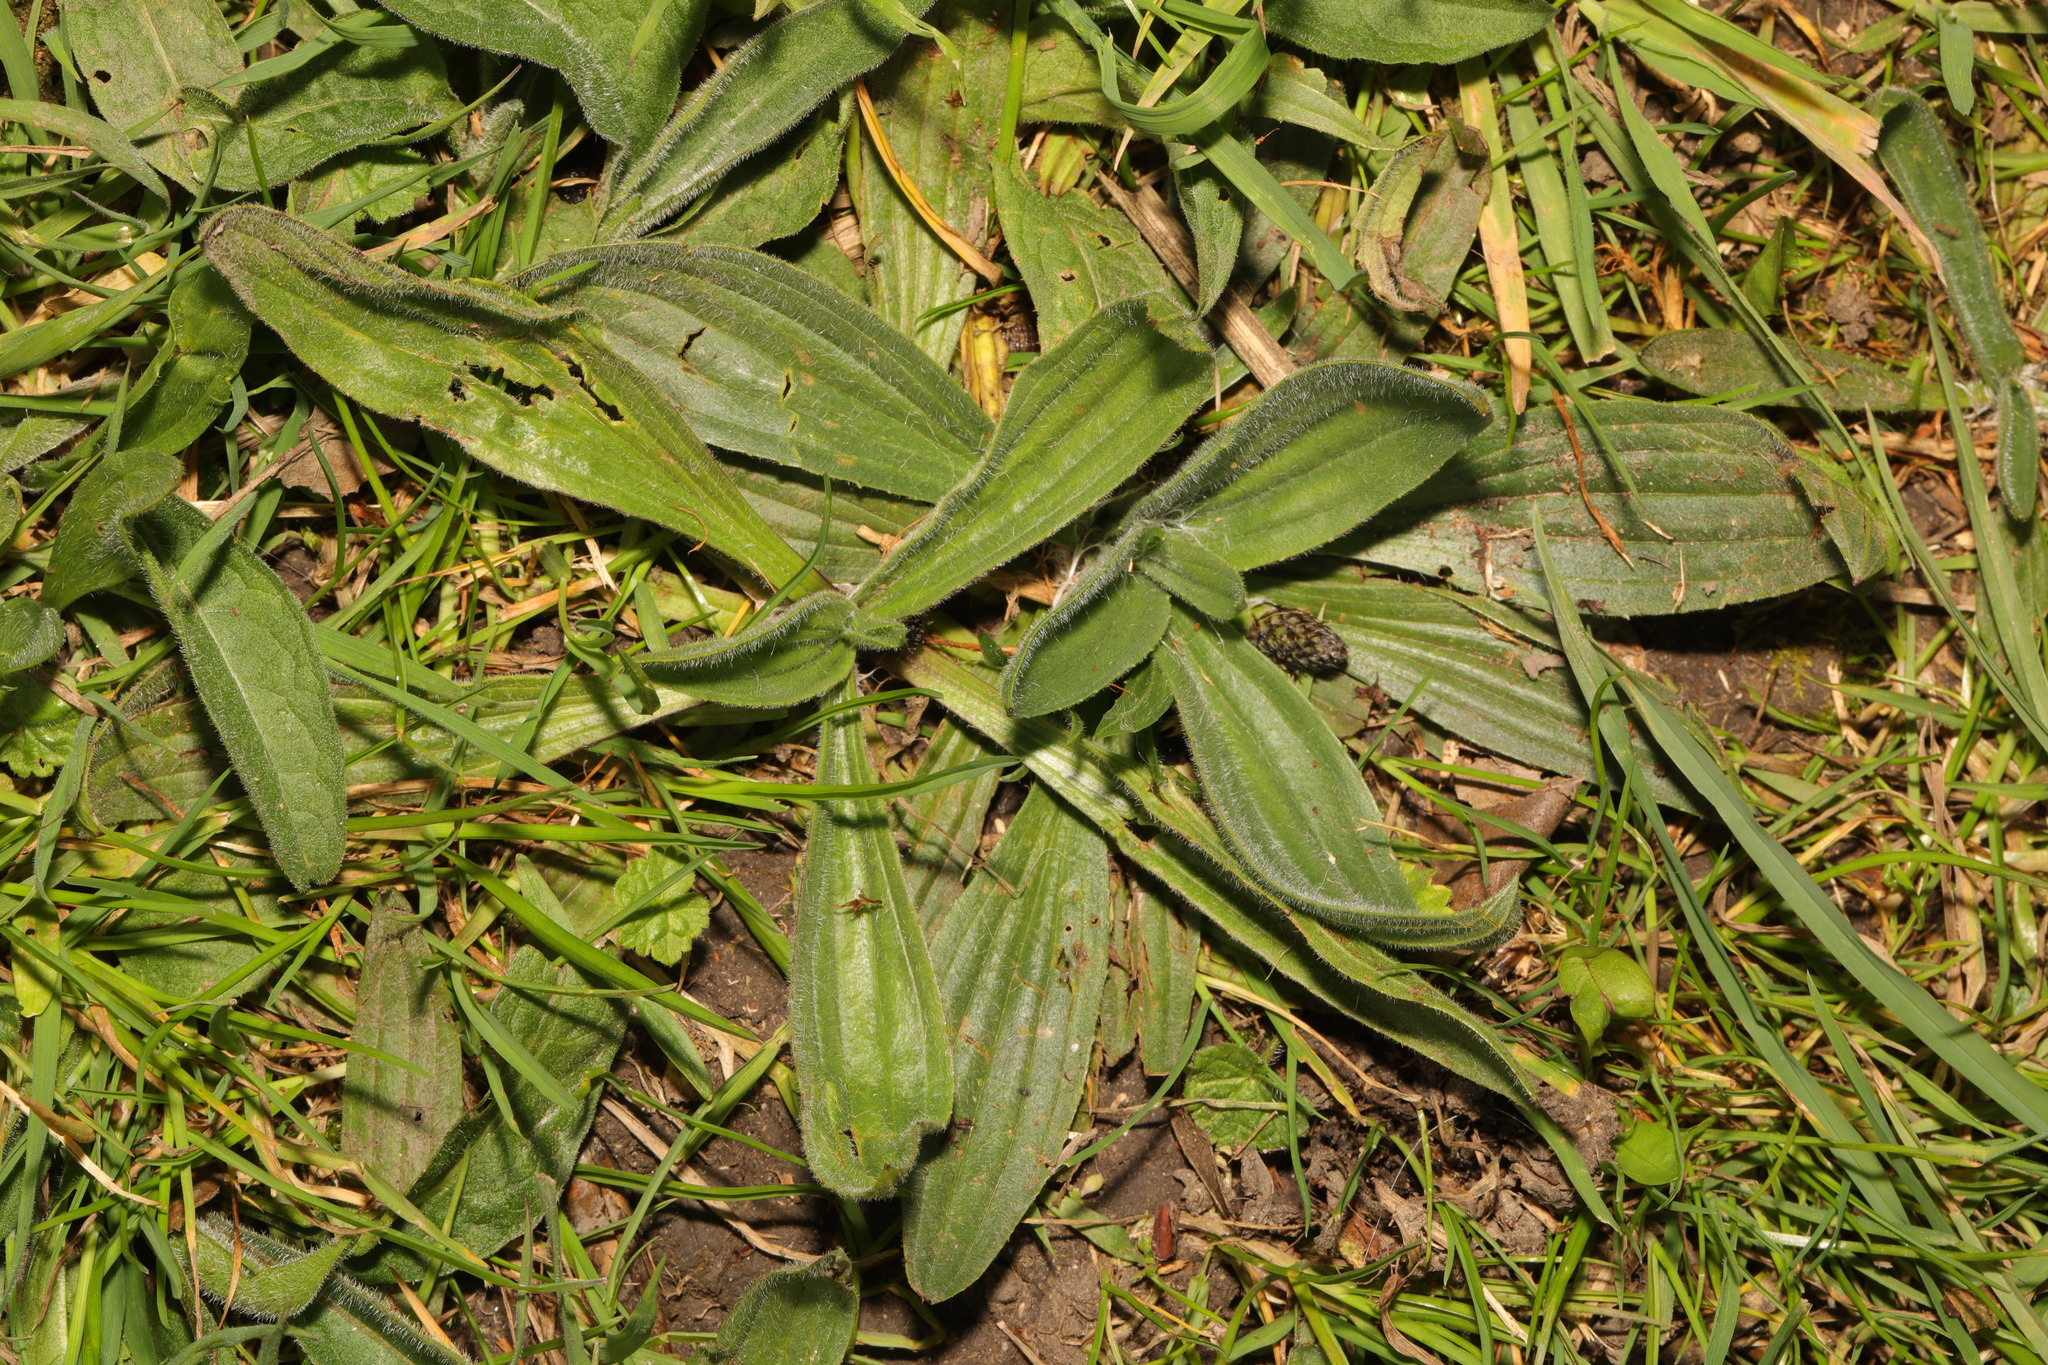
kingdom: Plantae
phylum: Tracheophyta
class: Magnoliopsida
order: Lamiales
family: Plantaginaceae
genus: Plantago
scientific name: Plantago lanceolata
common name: Ribwort plantain
